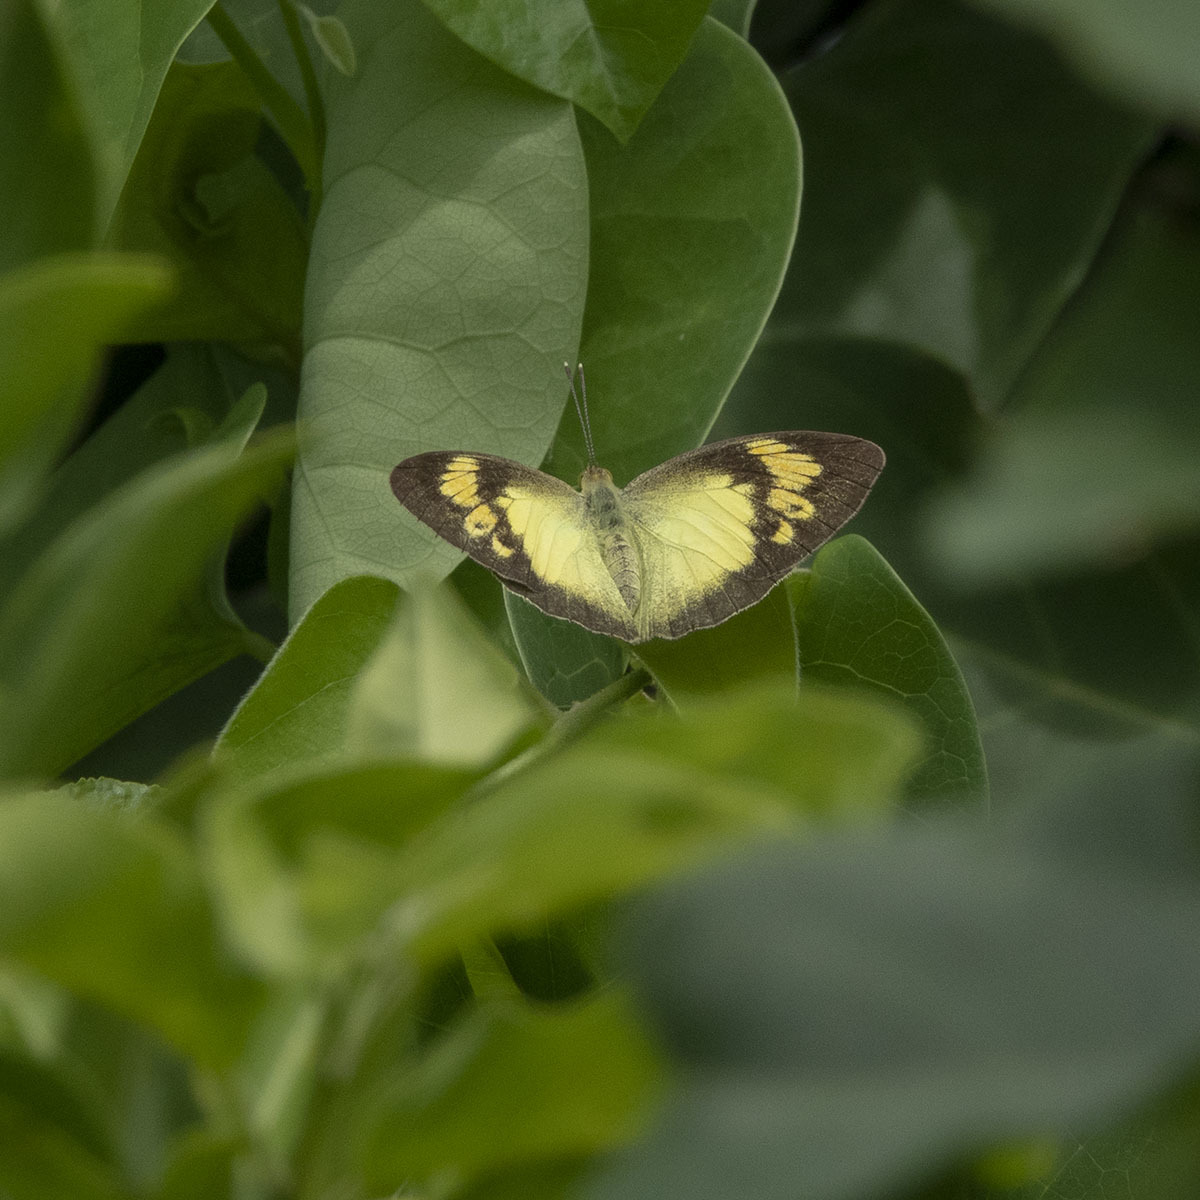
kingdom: Animalia
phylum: Arthropoda
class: Insecta
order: Lepidoptera
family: Pieridae
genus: Ixias
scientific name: Ixias pyrene
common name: Yellow orange tip
